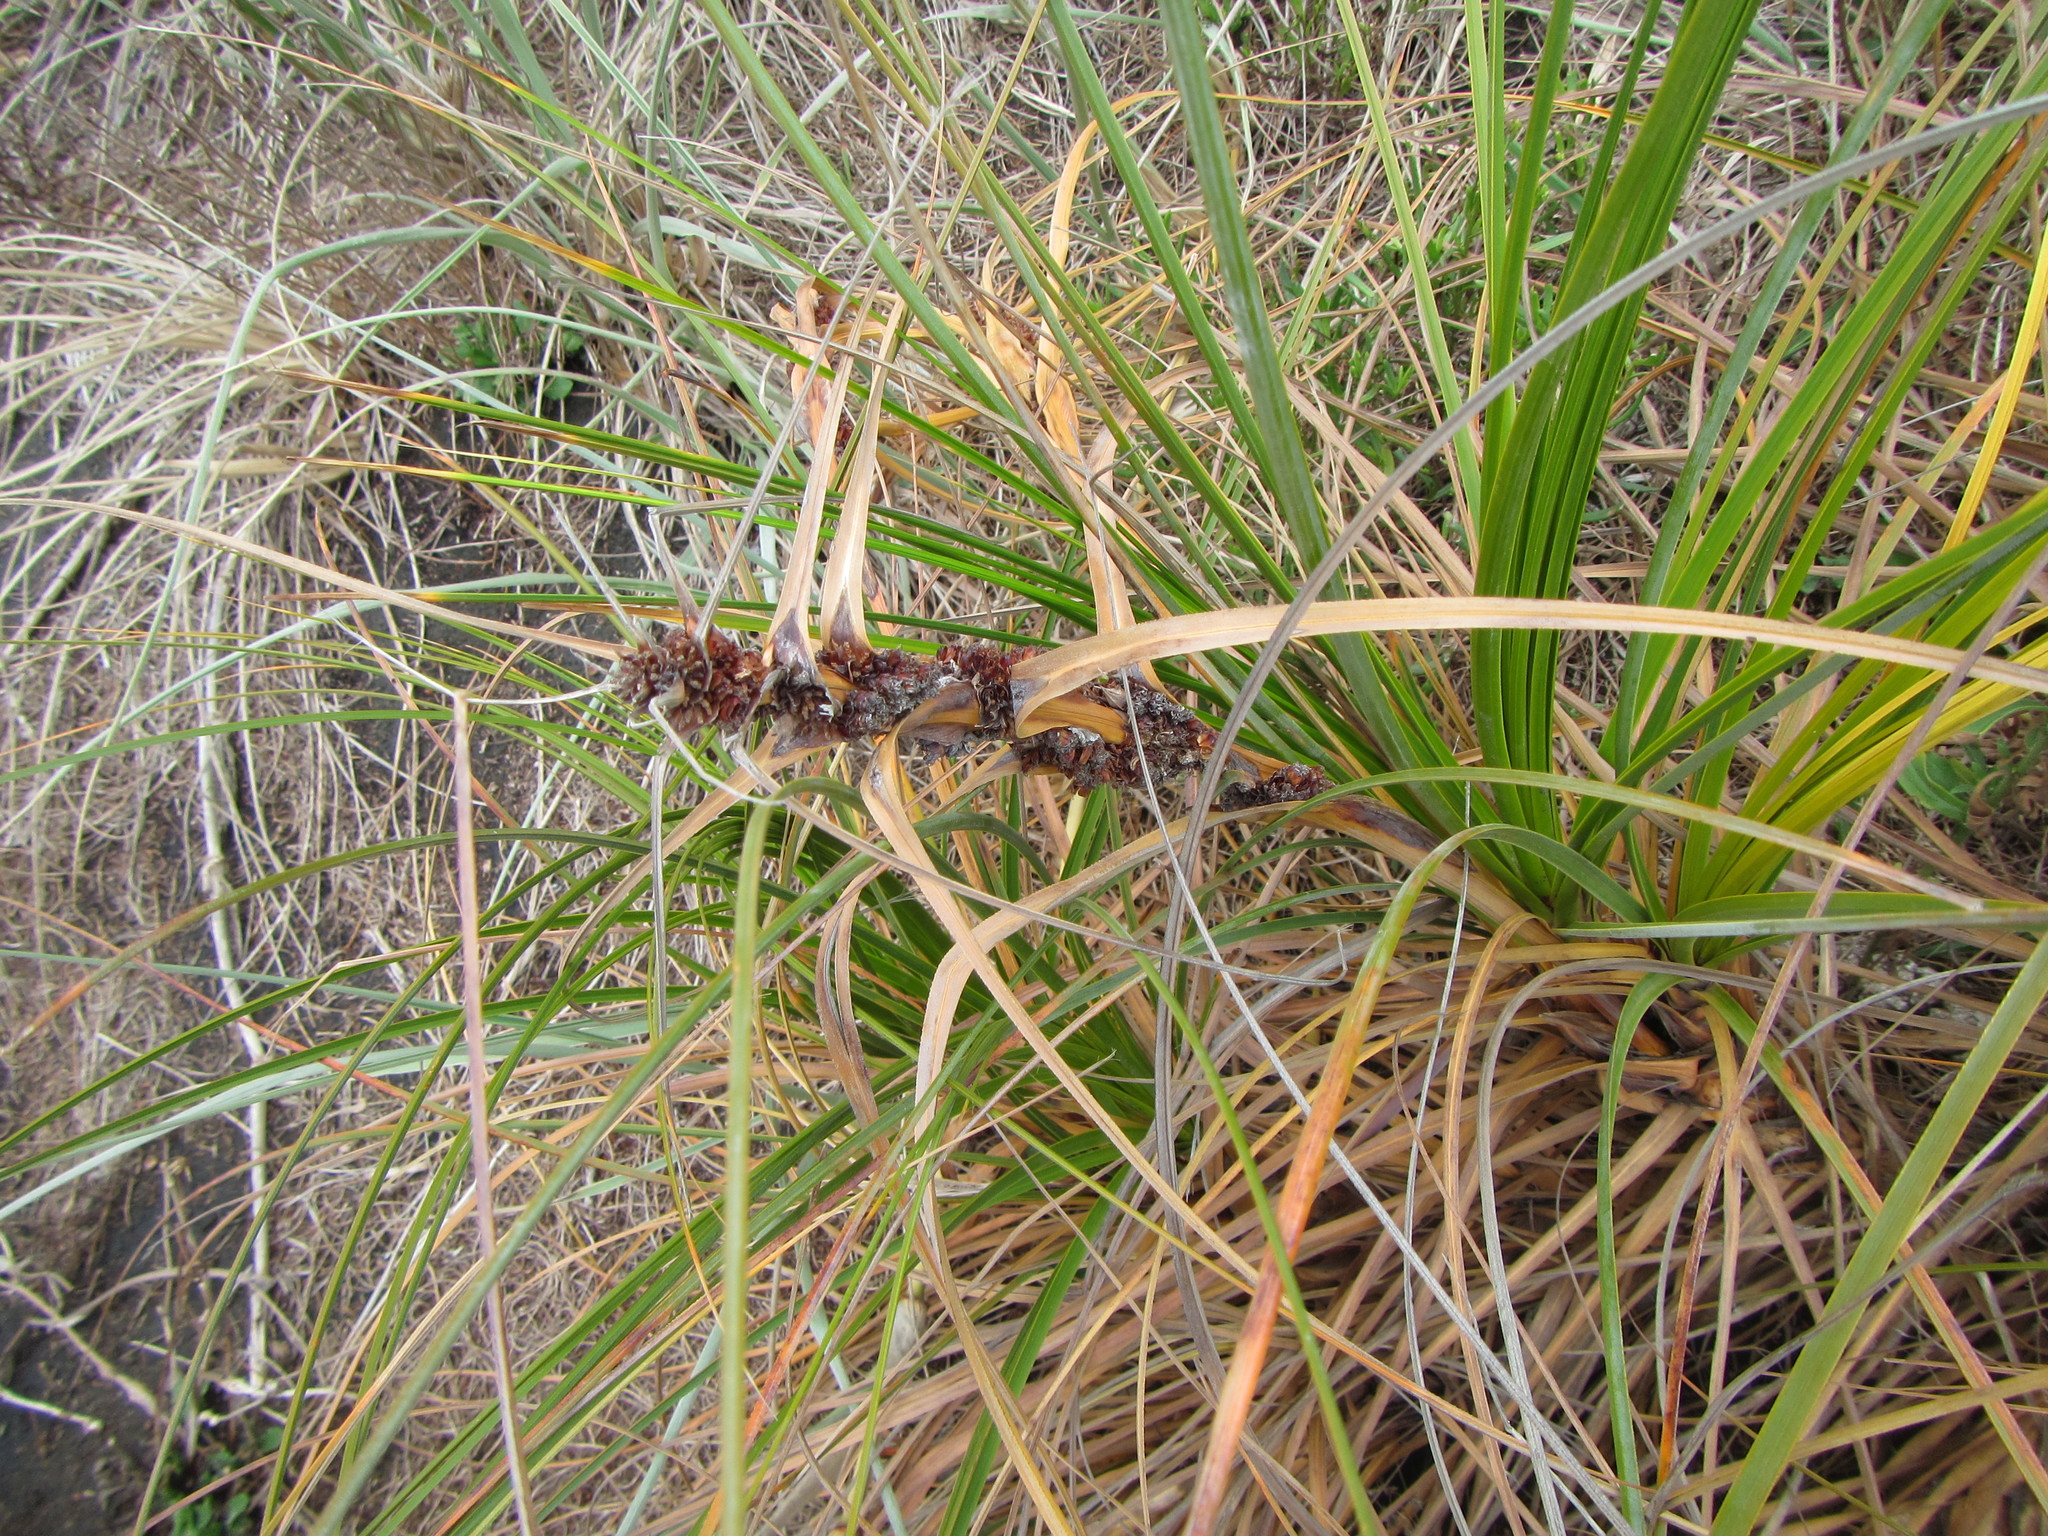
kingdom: Plantae
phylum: Tracheophyta
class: Liliopsida
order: Poales
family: Cyperaceae
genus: Ficinia
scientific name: Ficinia spiralis
